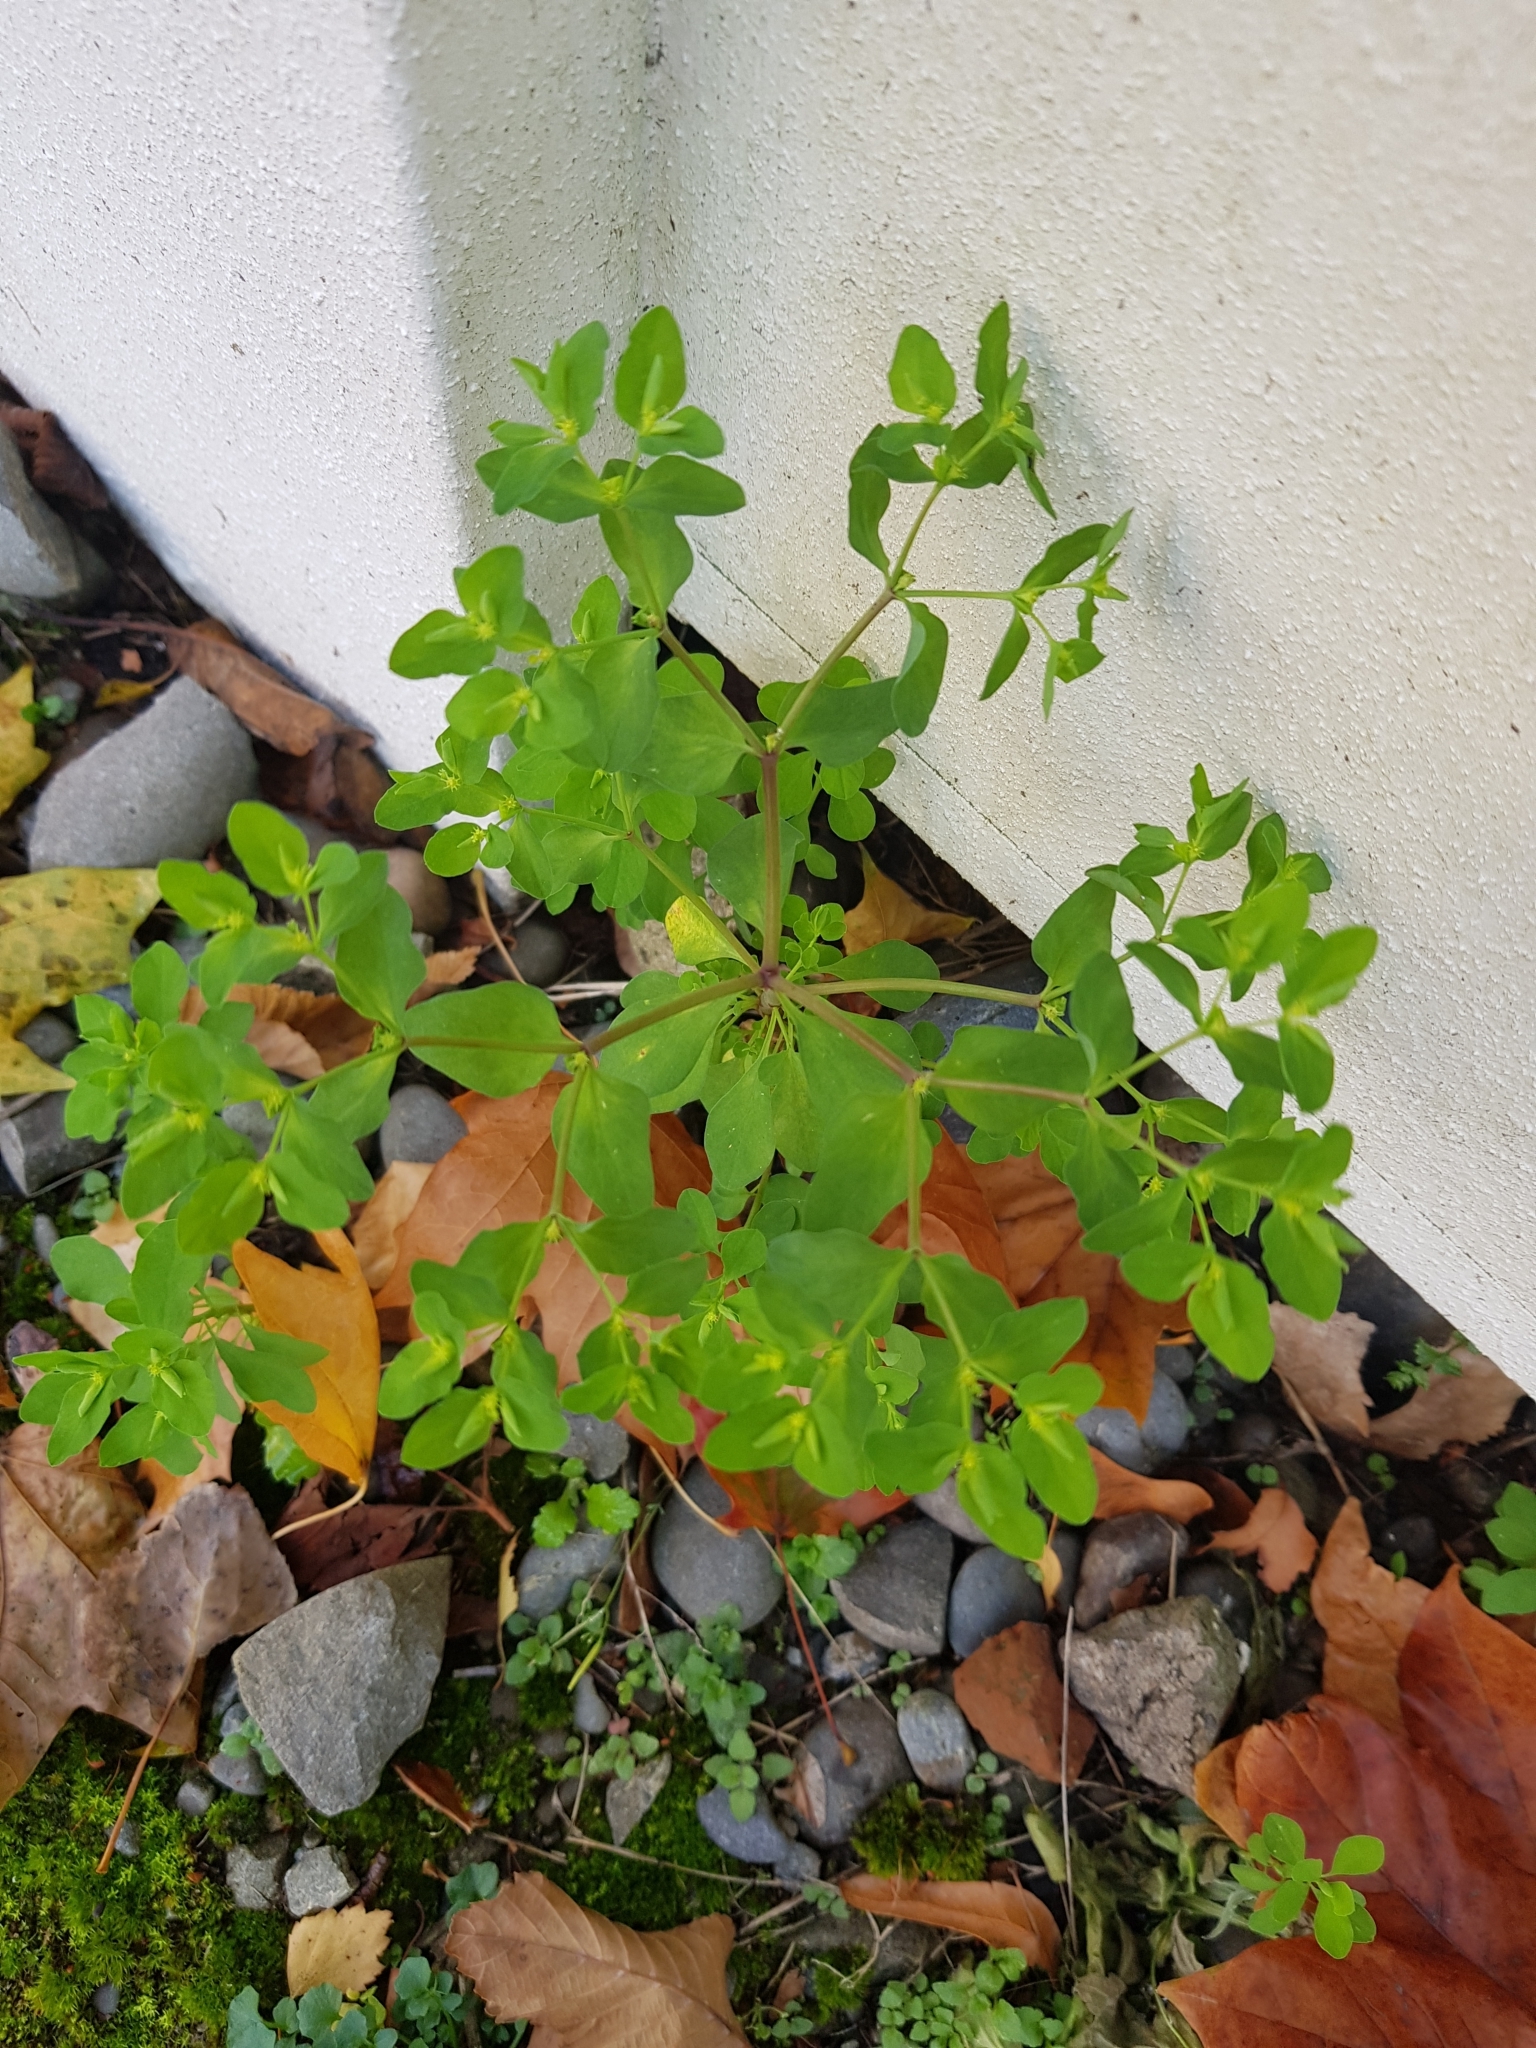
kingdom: Plantae
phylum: Tracheophyta
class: Magnoliopsida
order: Malpighiales
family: Euphorbiaceae
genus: Euphorbia
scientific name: Euphorbia peplus
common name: Petty spurge
